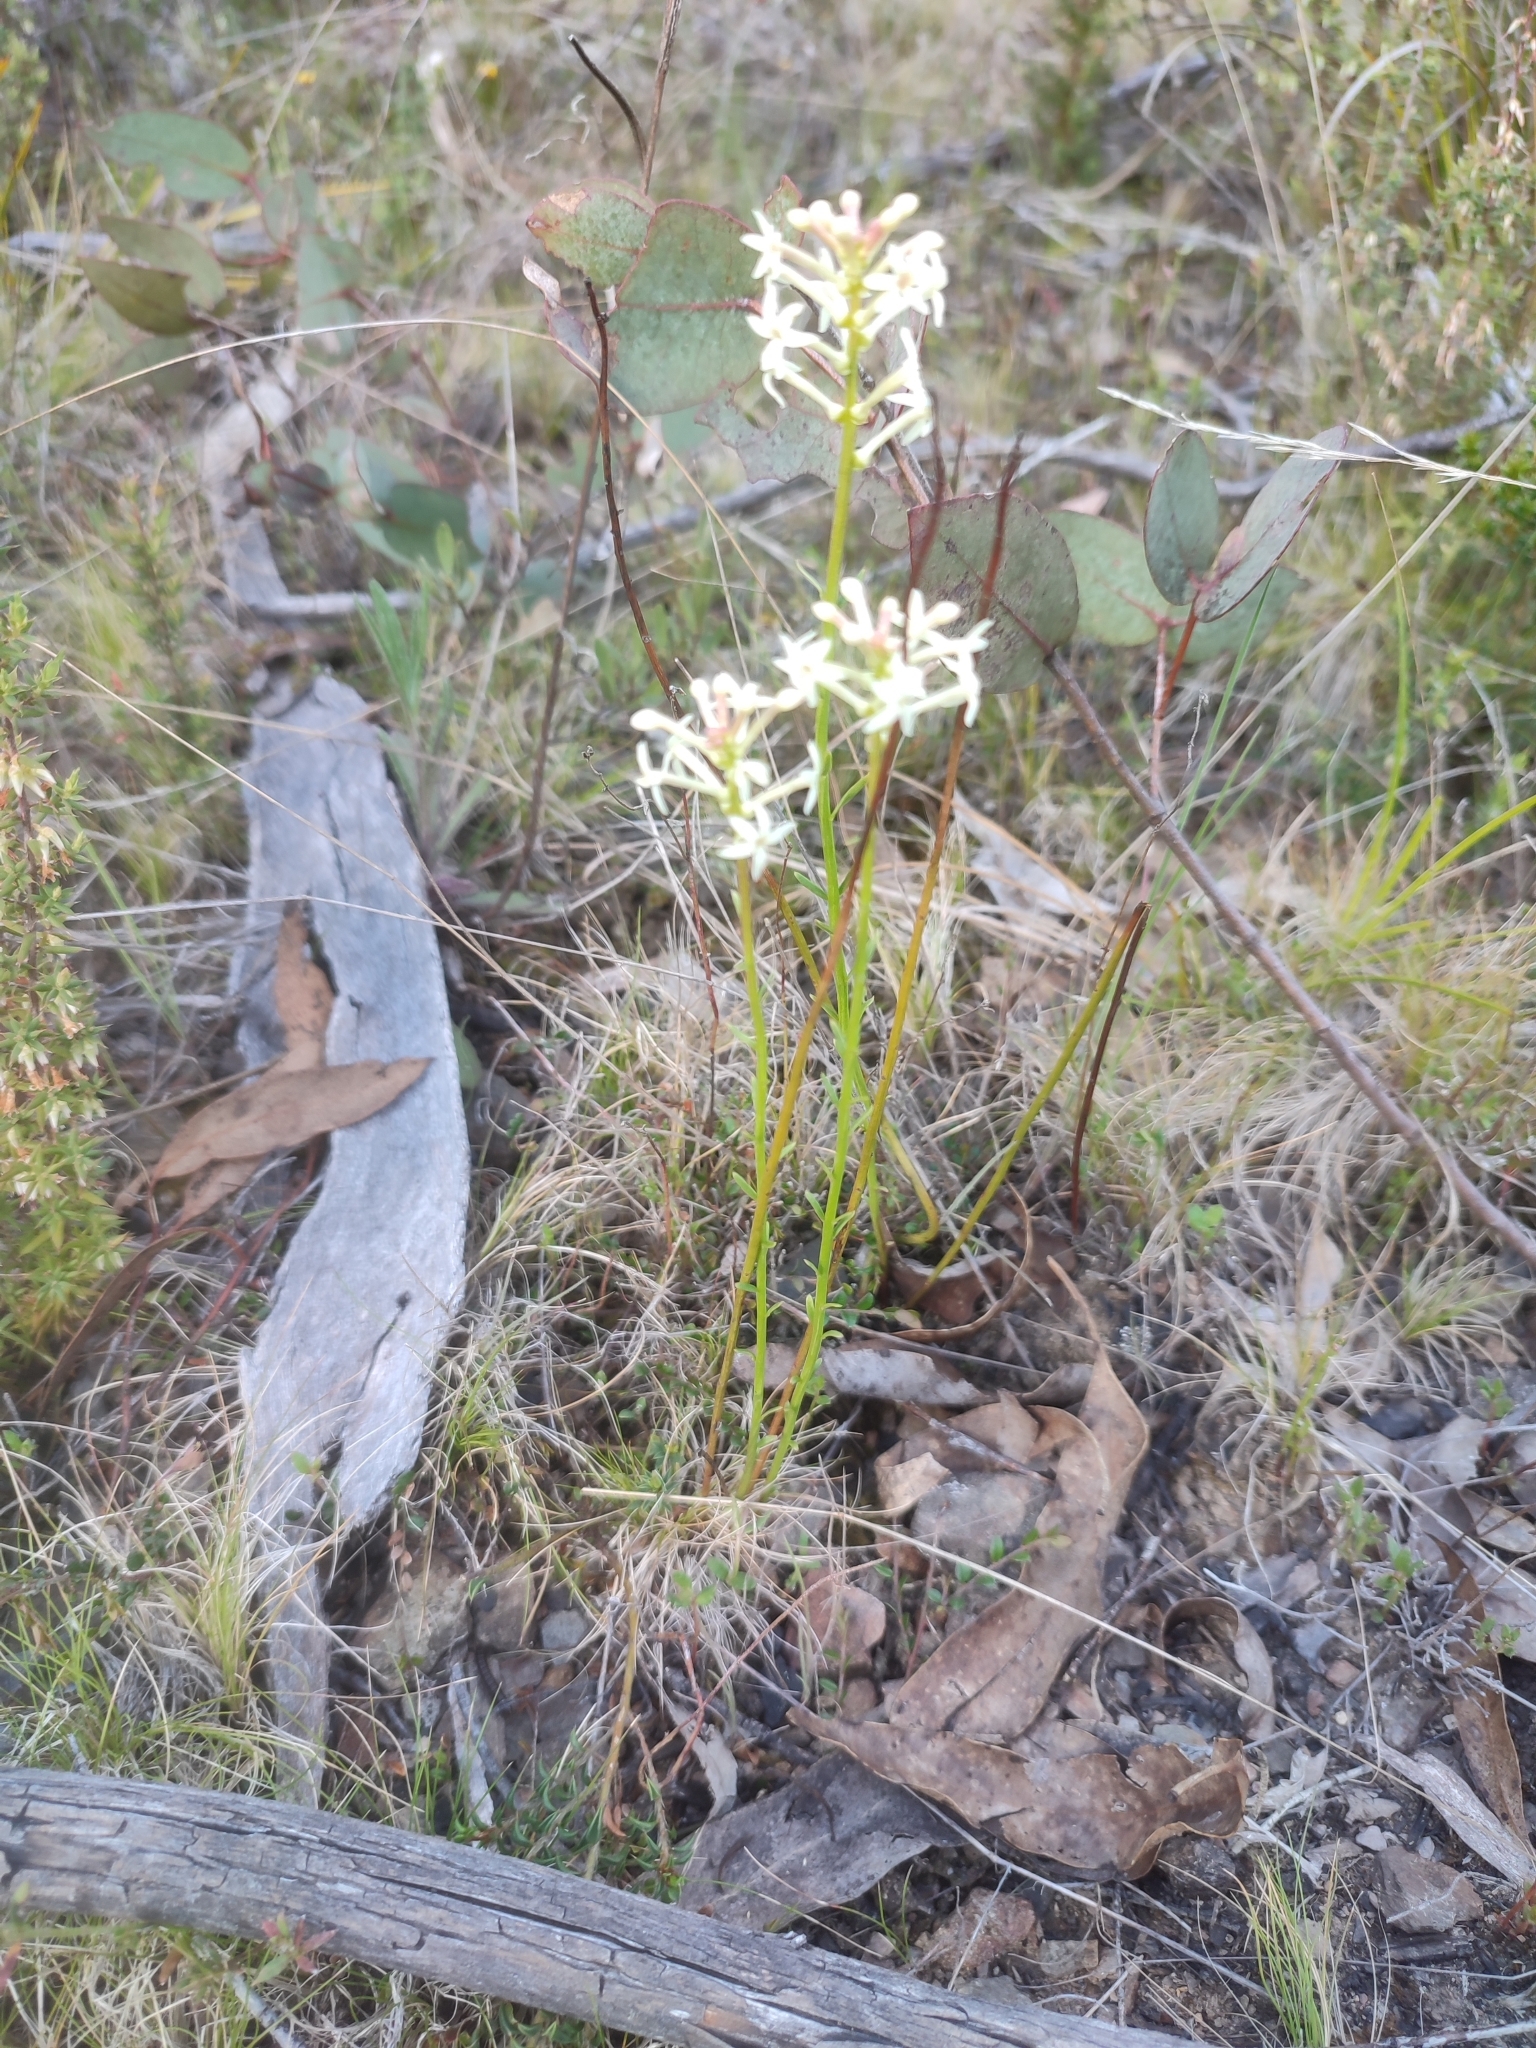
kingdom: Plantae
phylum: Tracheophyta
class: Magnoliopsida
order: Celastrales
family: Celastraceae
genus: Stackhousia
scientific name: Stackhousia monogyna
